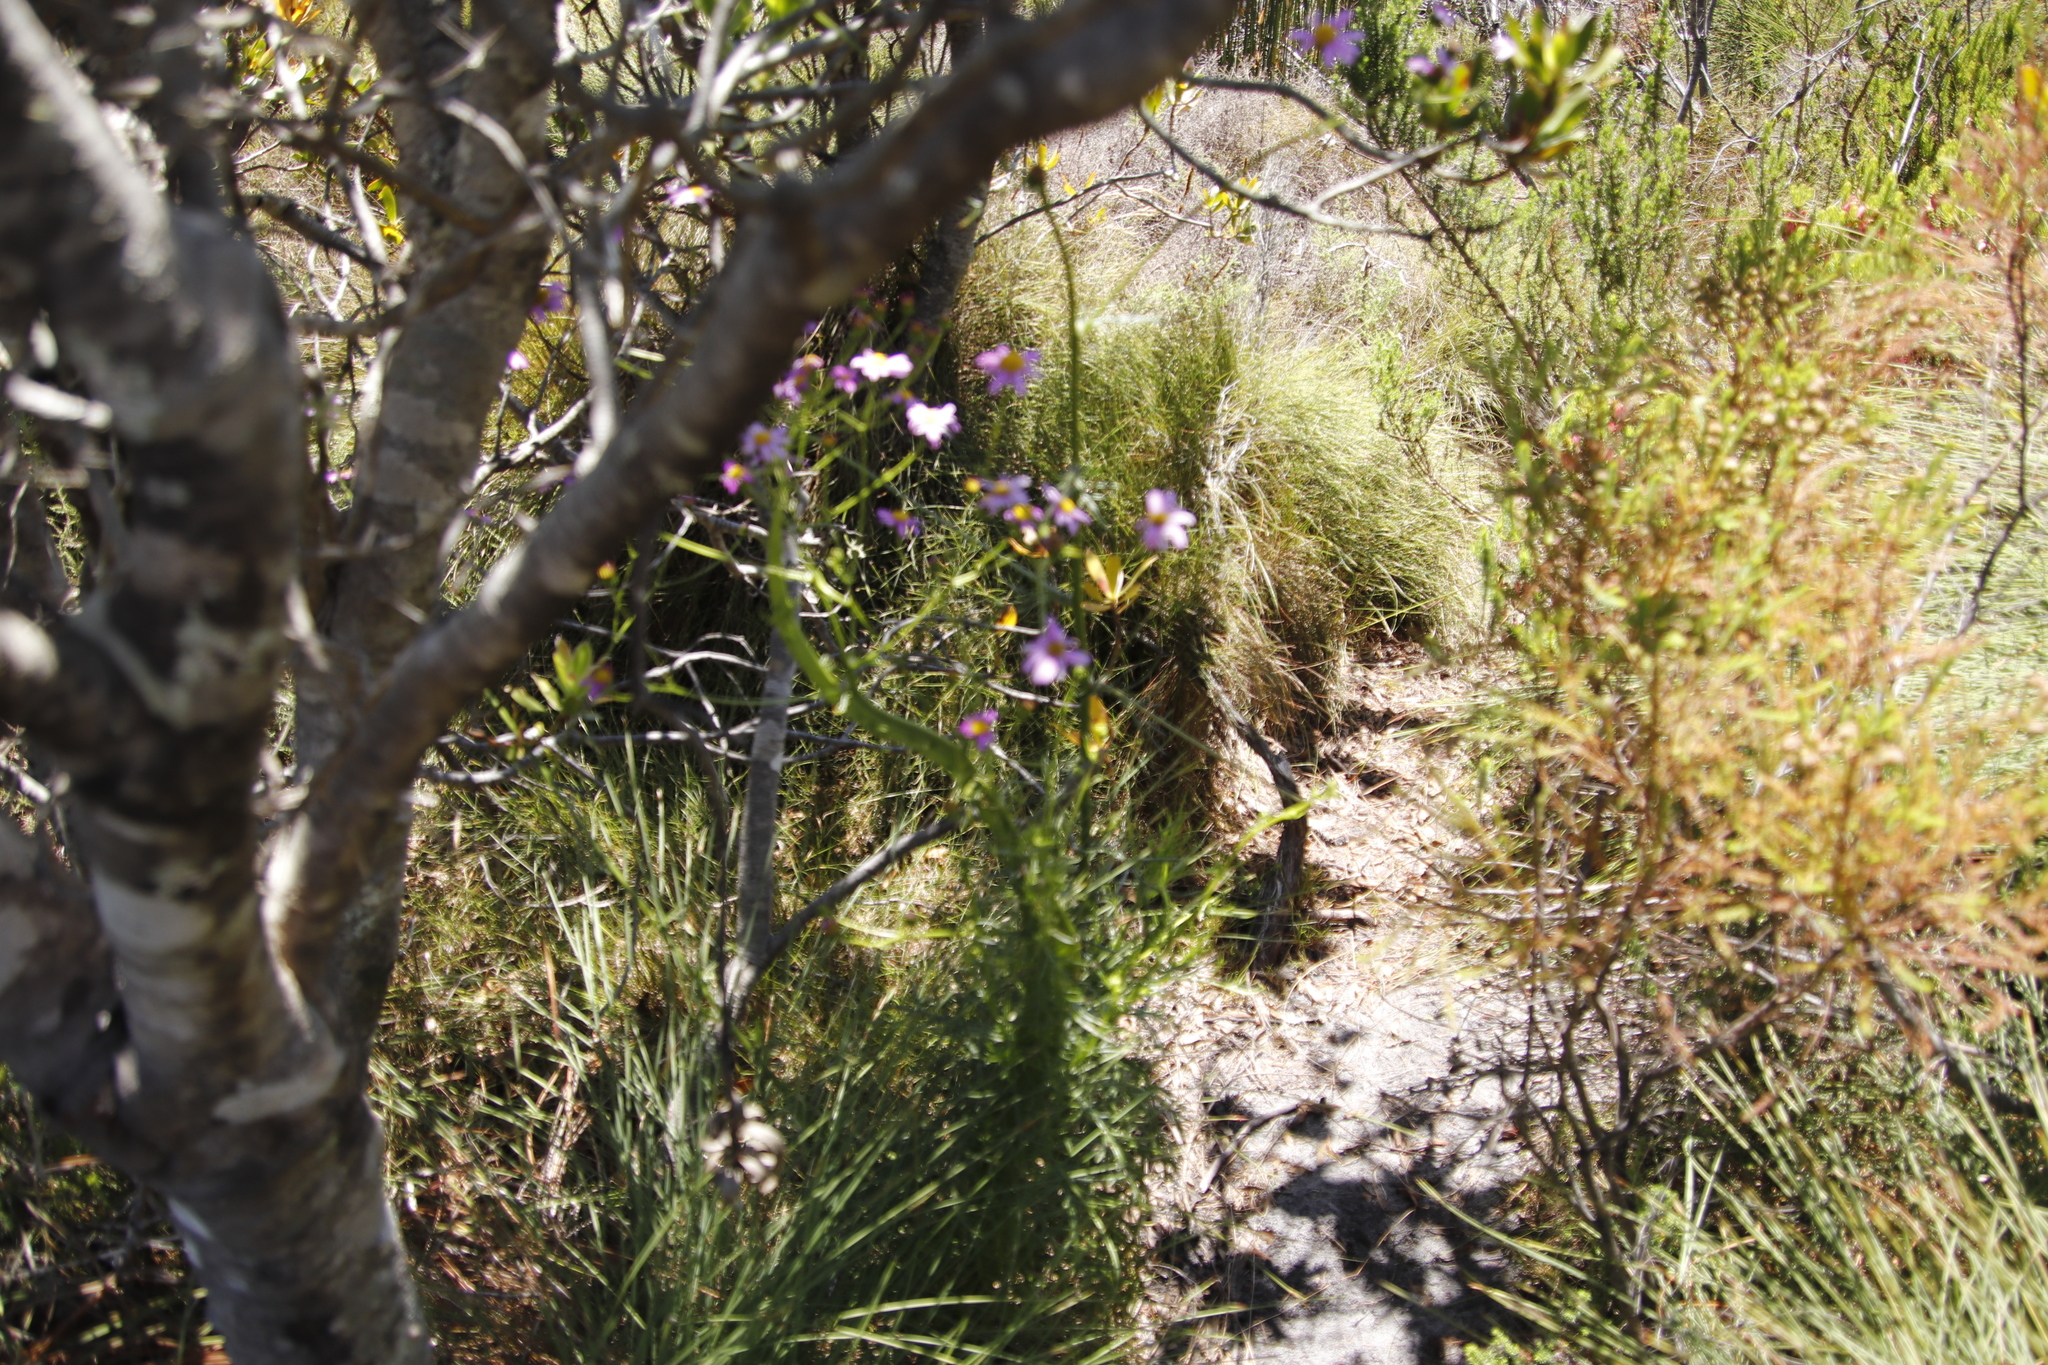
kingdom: Plantae
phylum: Tracheophyta
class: Magnoliopsida
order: Asterales
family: Asteraceae
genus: Senecio
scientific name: Senecio umbellatus
